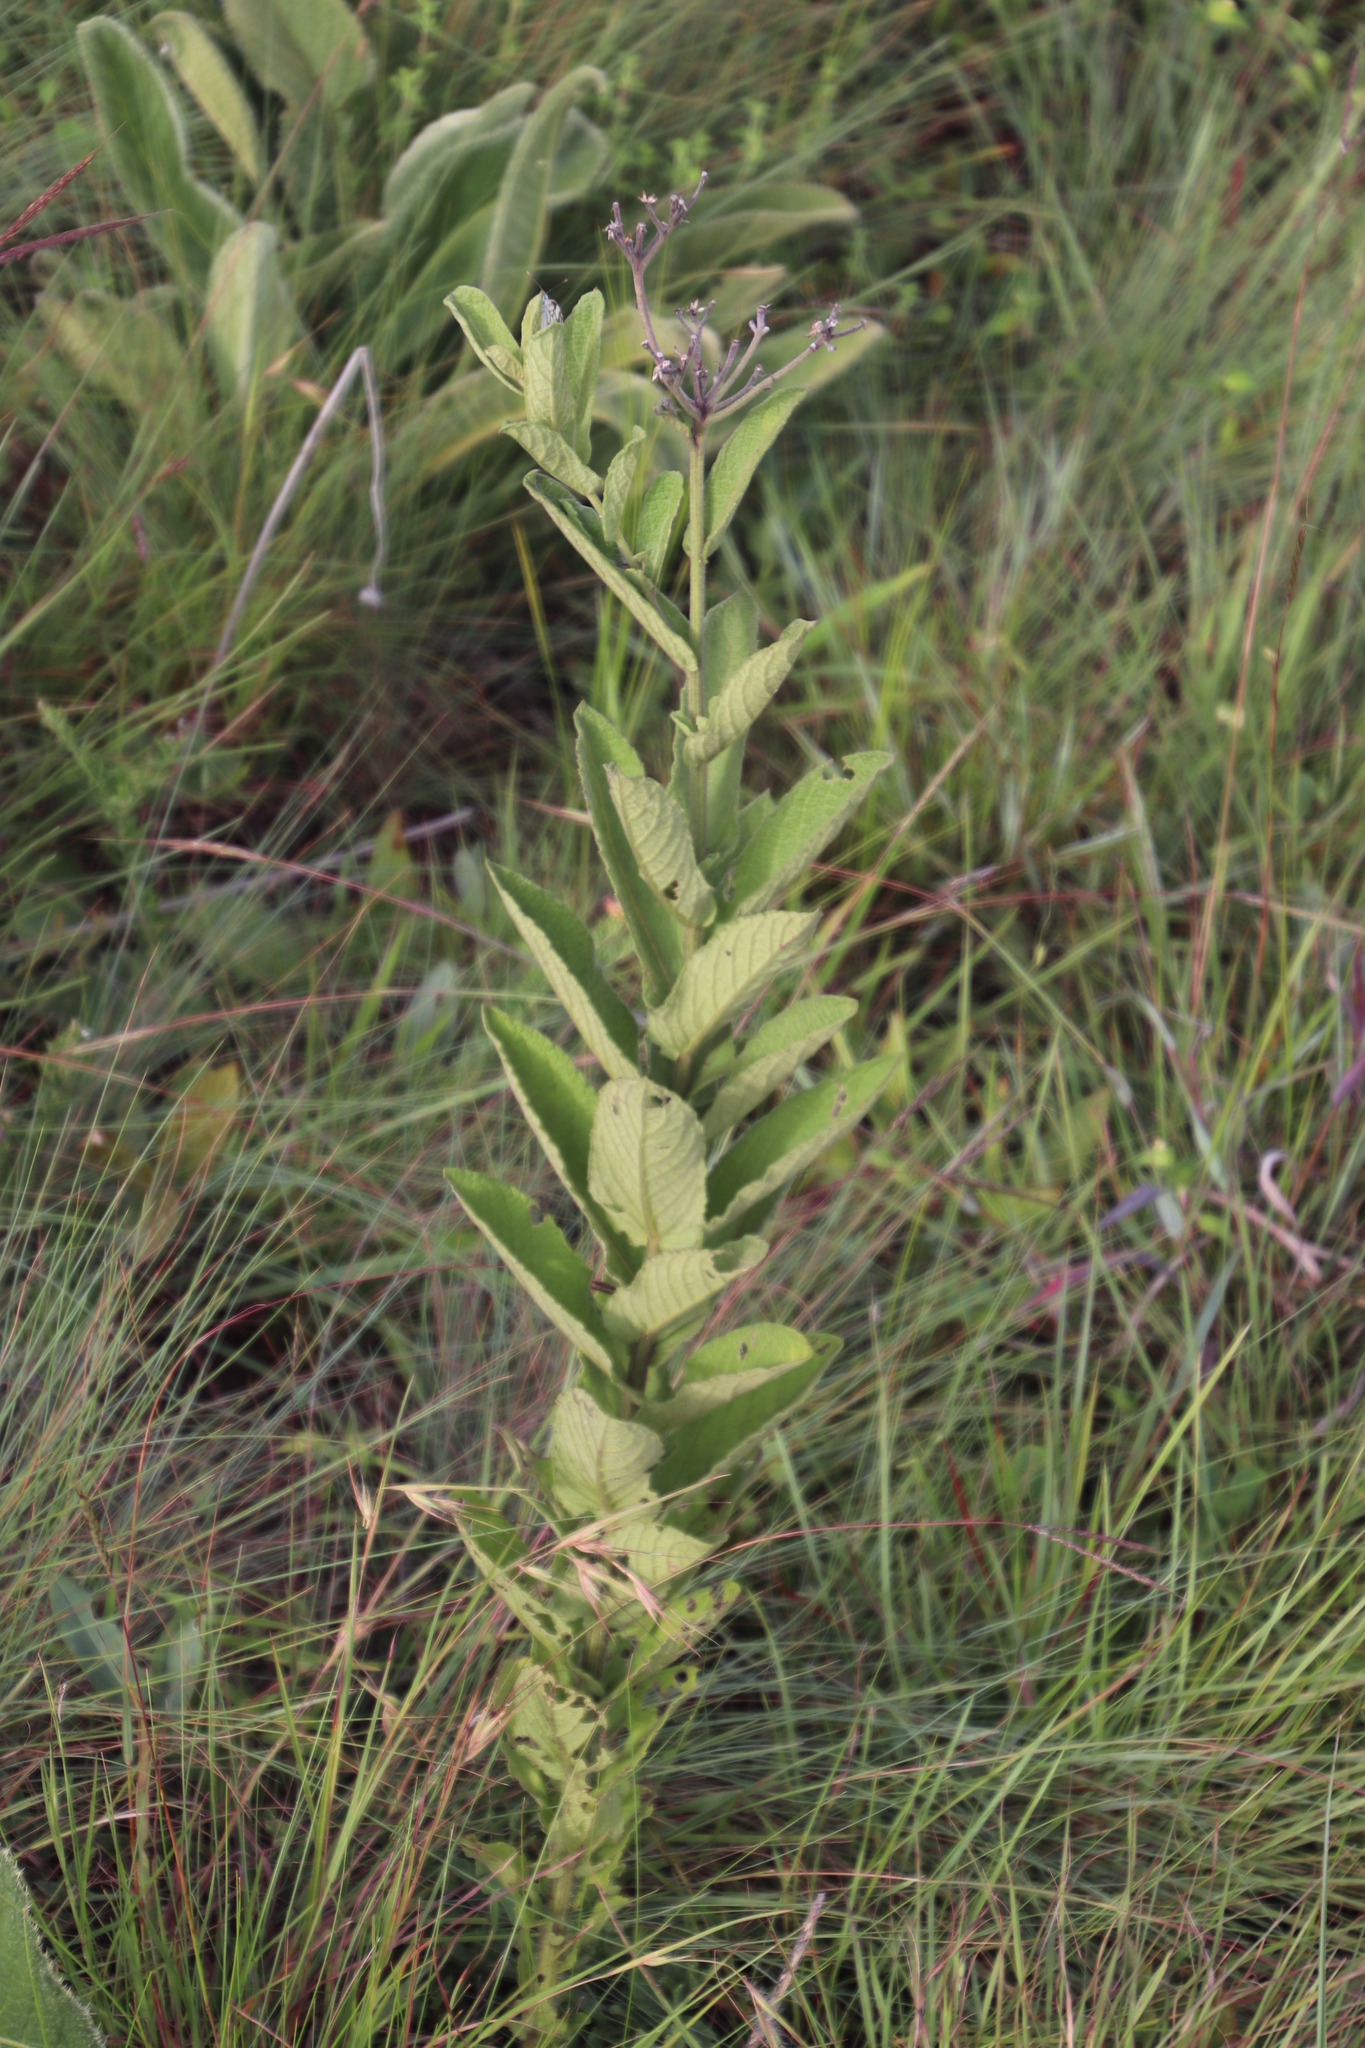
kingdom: Plantae
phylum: Tracheophyta
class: Magnoliopsida
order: Asterales
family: Asteraceae
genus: Hilliardiella
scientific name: Hilliardiella hirsuta
